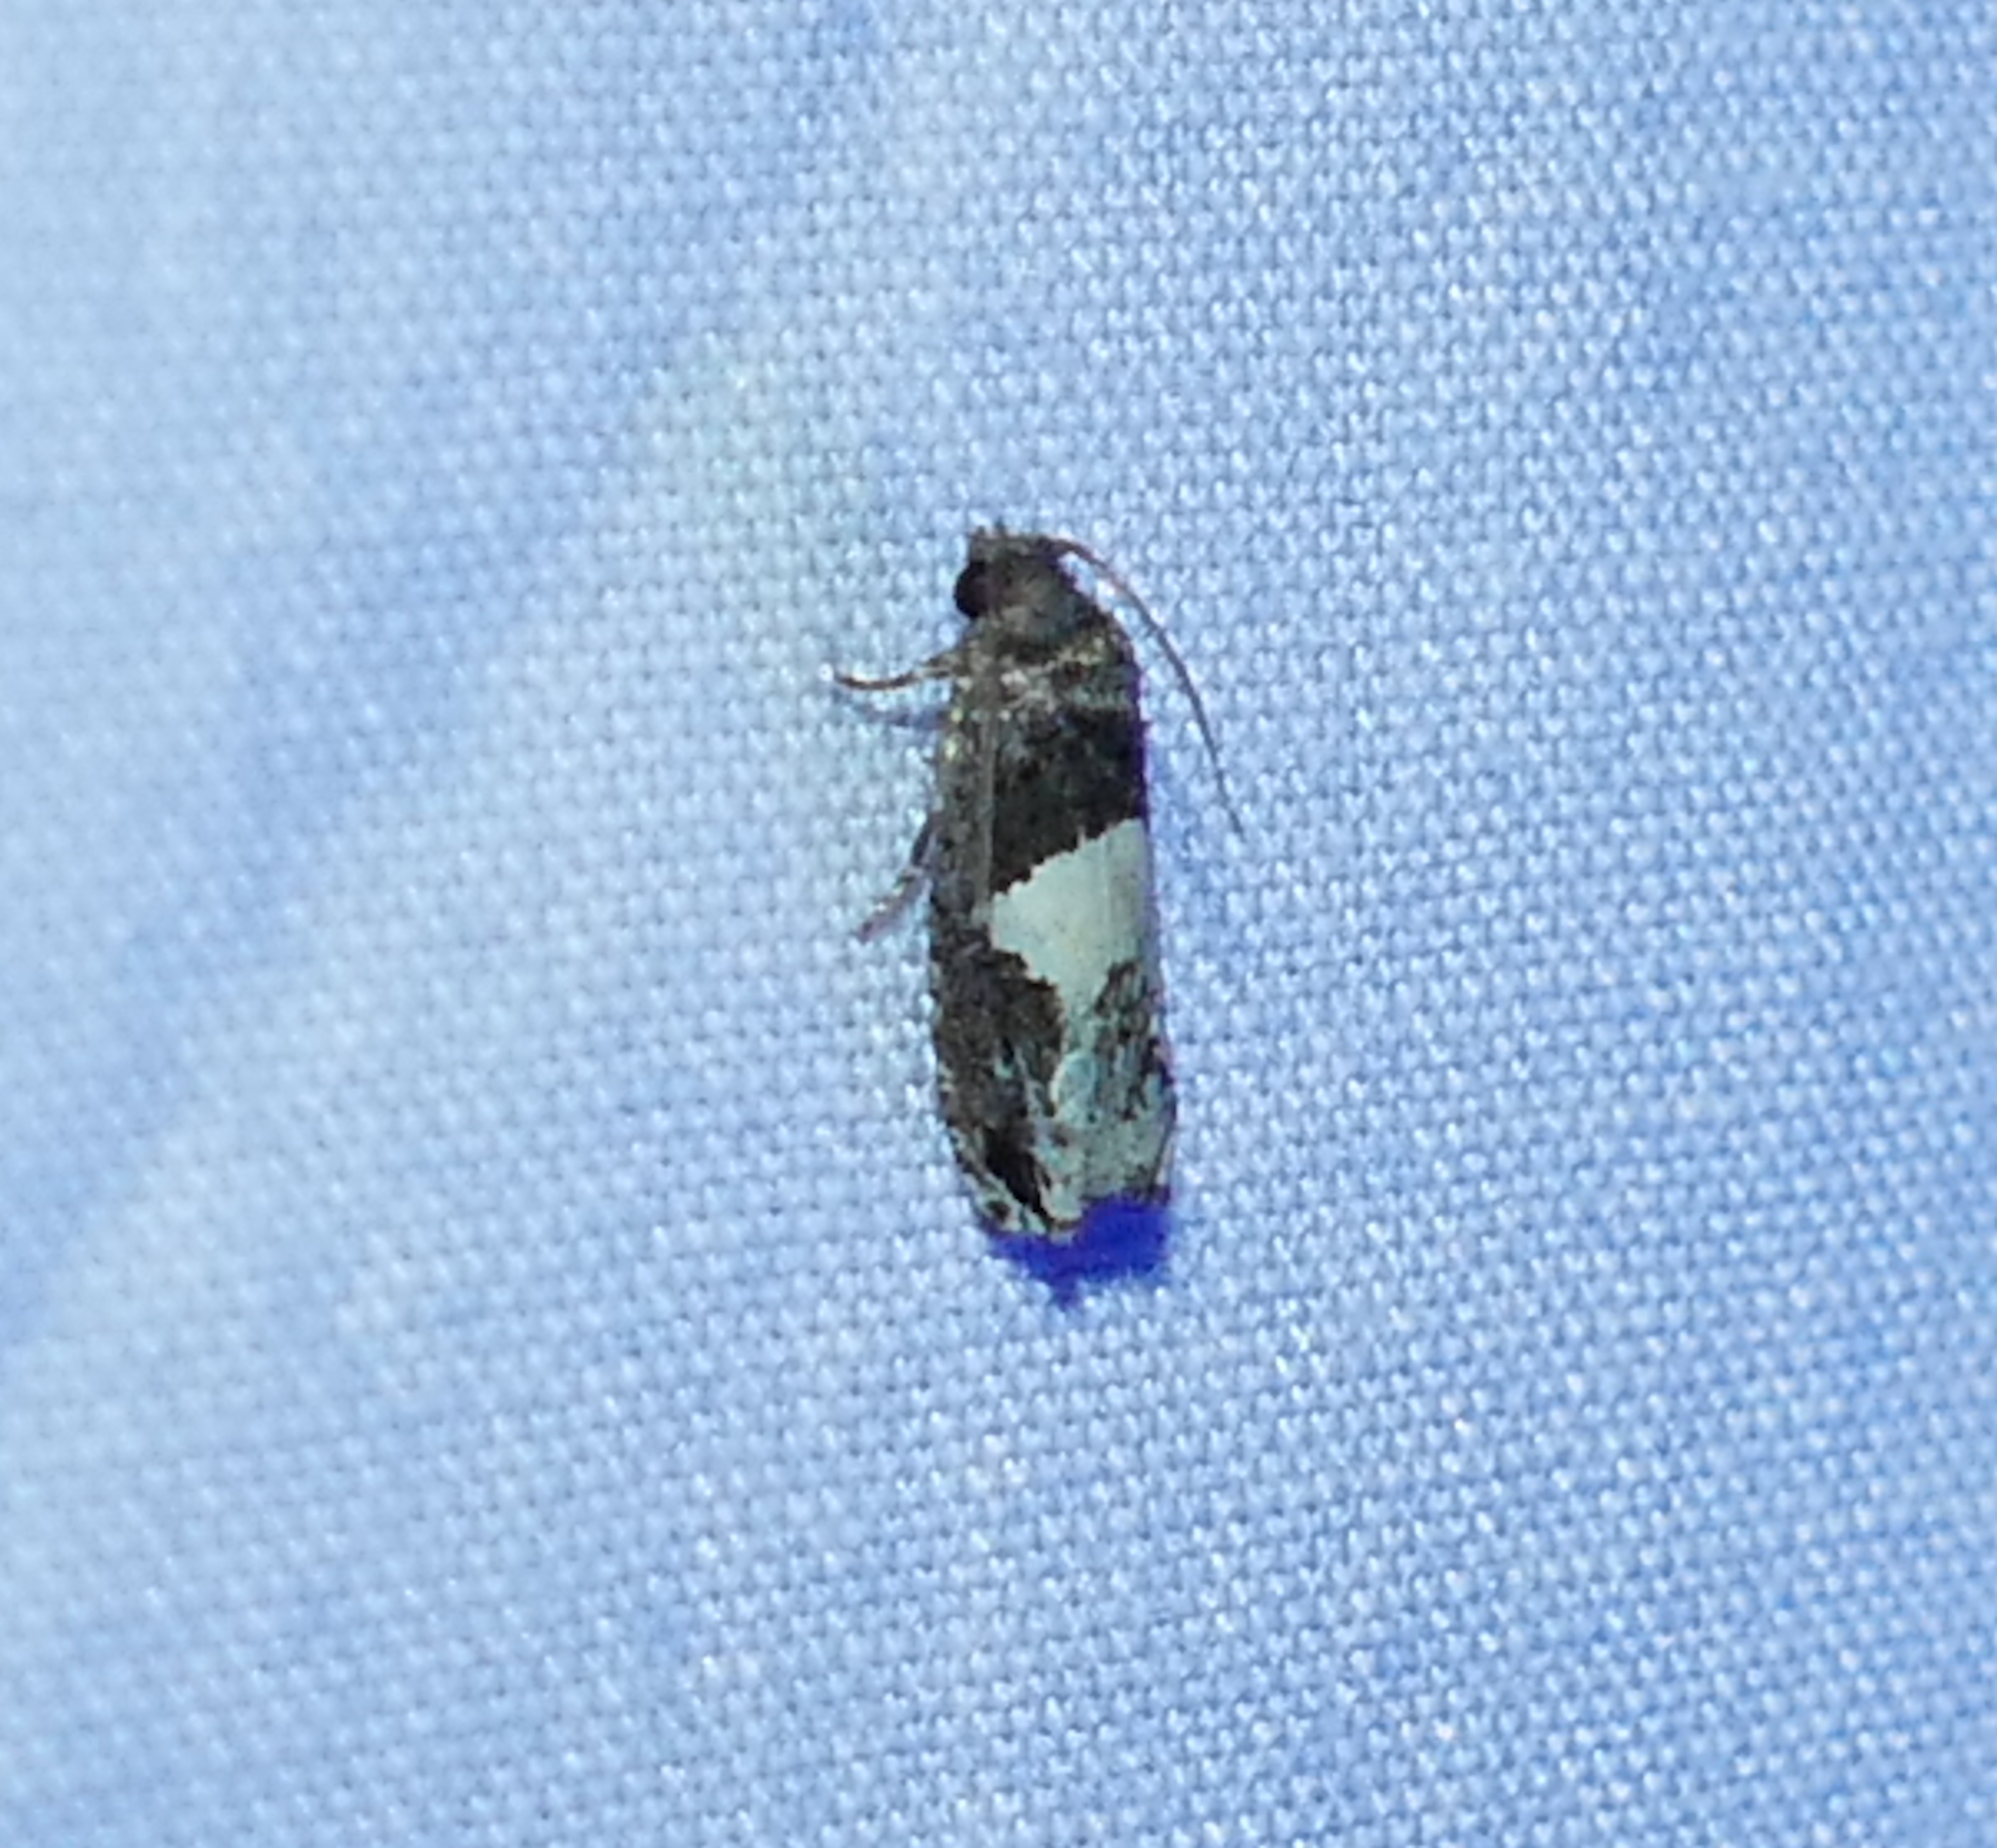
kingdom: Animalia
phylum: Arthropoda
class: Insecta
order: Lepidoptera
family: Tortricidae
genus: Epiblema
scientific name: Epiblema otiosana
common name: Bidens borer moth
